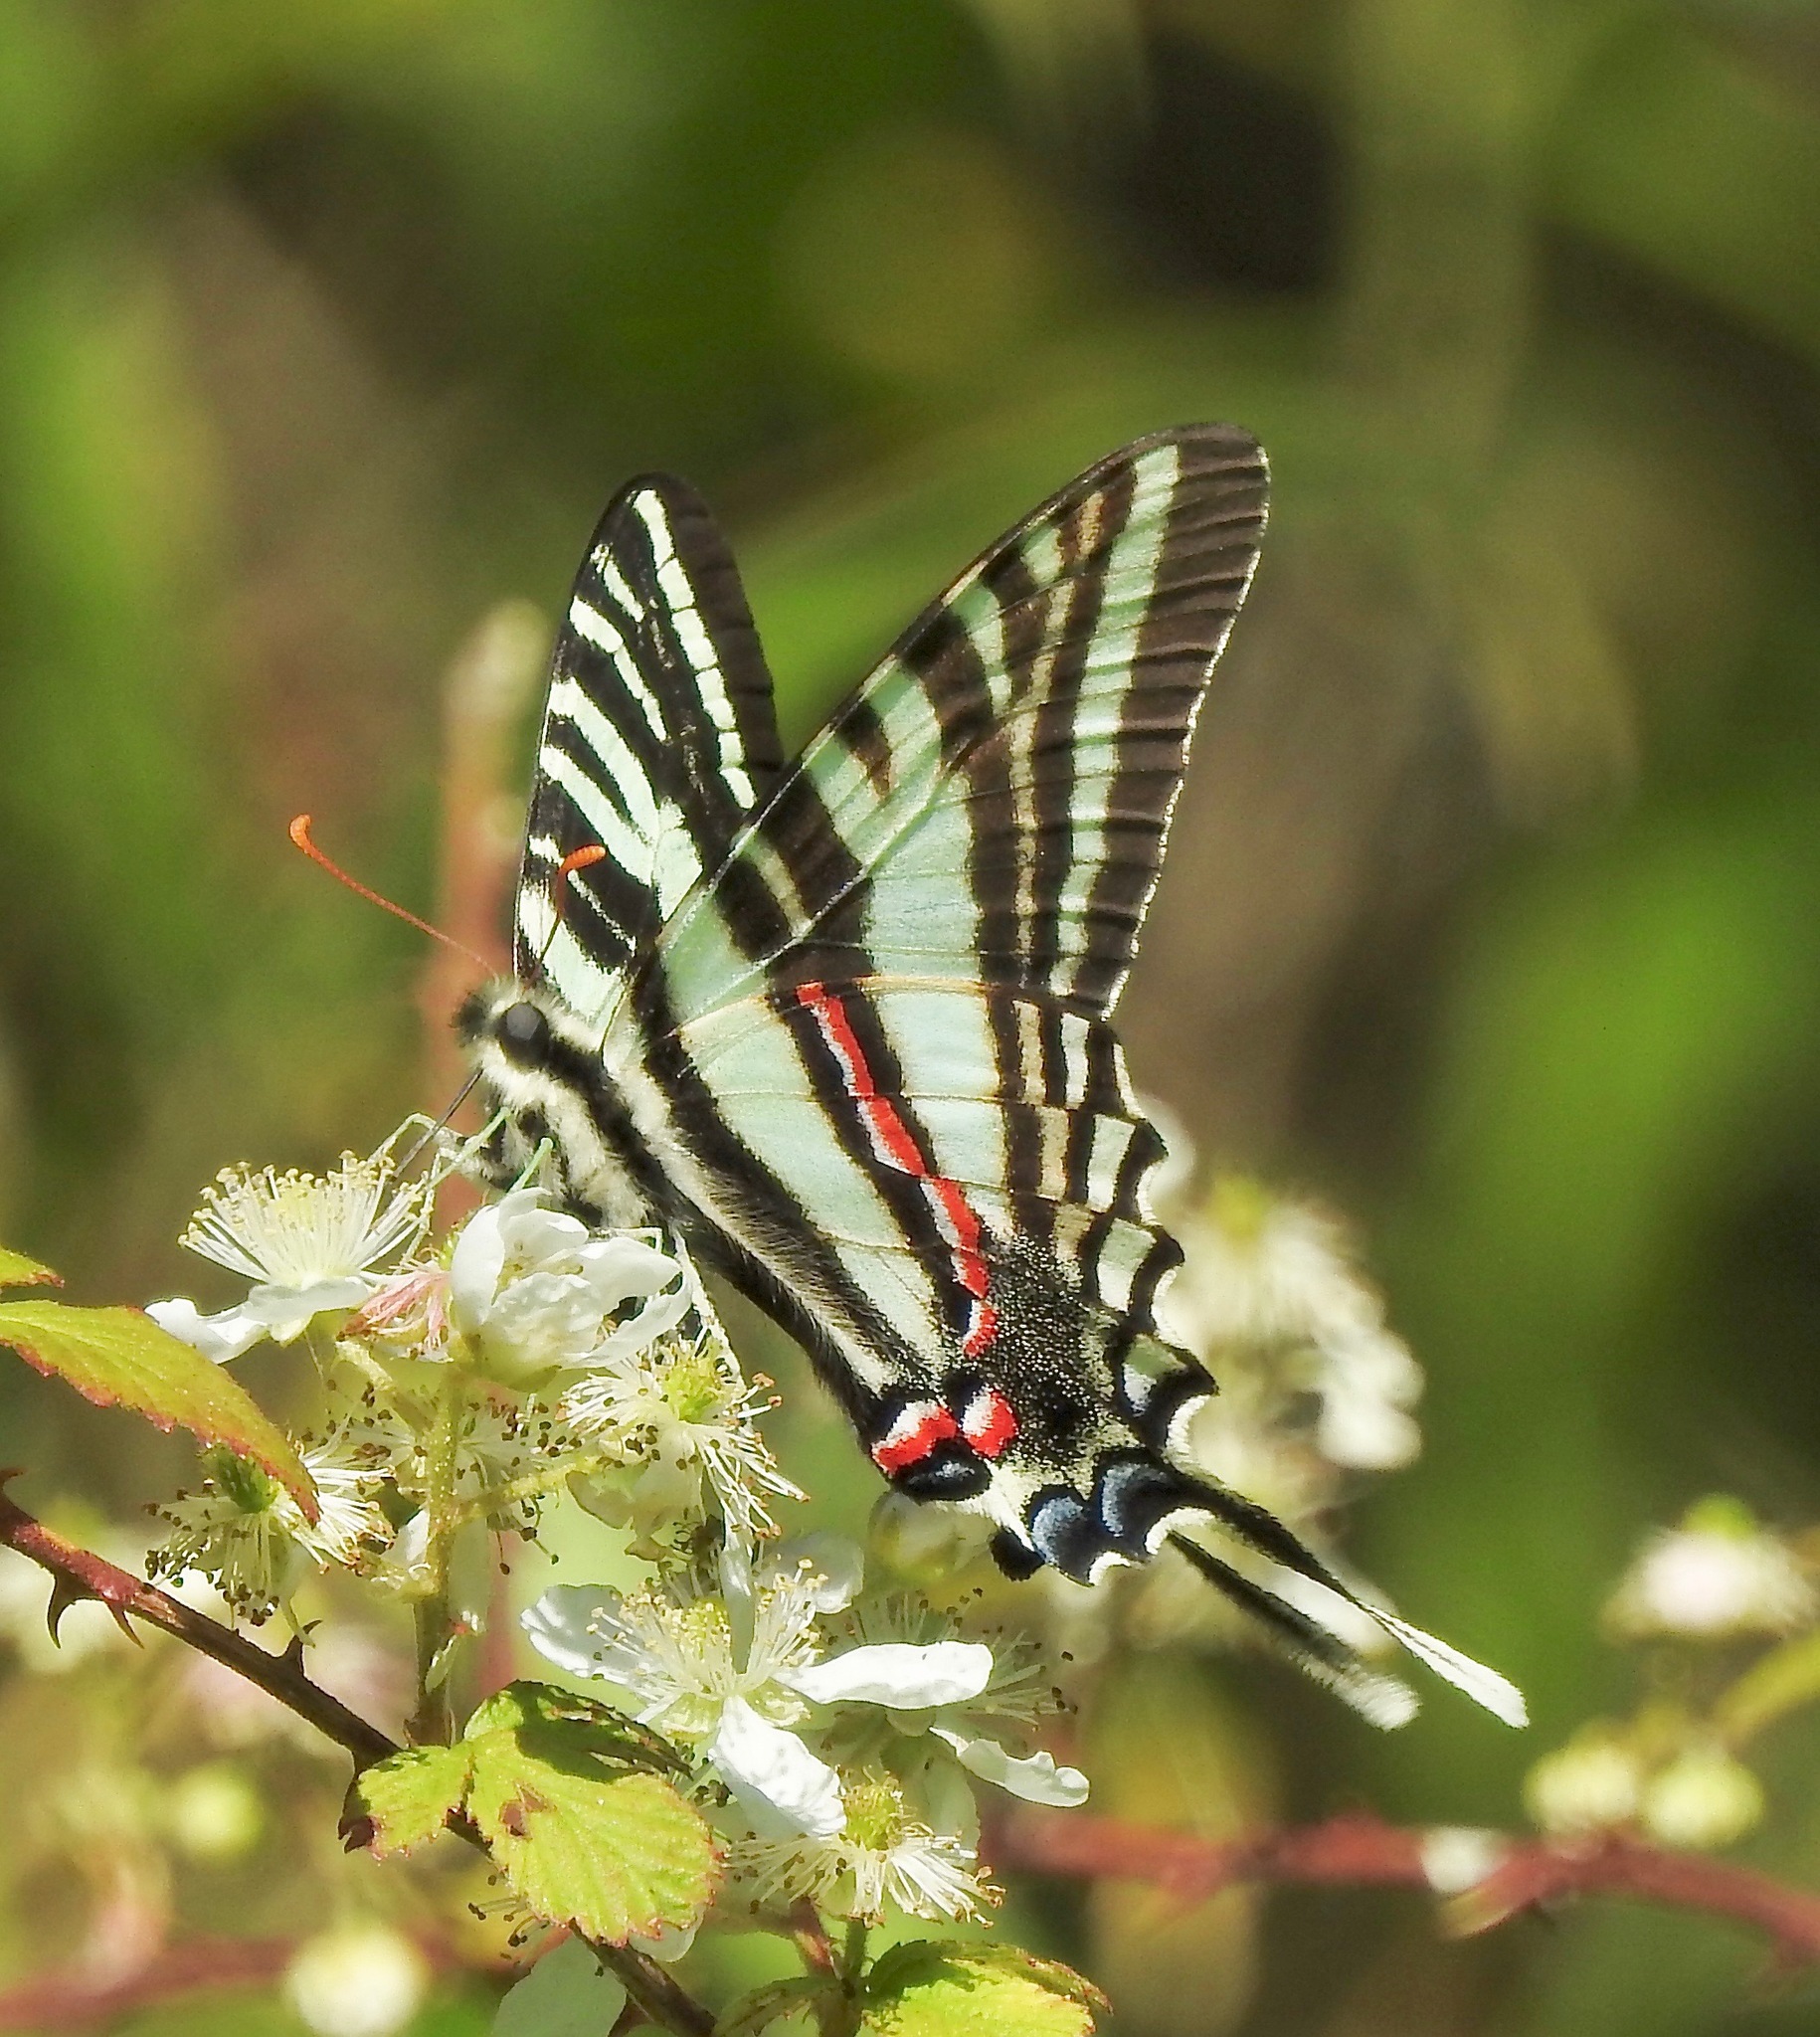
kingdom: Animalia
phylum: Arthropoda
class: Insecta
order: Lepidoptera
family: Papilionidae
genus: Protographium
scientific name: Protographium marcellus
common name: Zebra swallowtail
